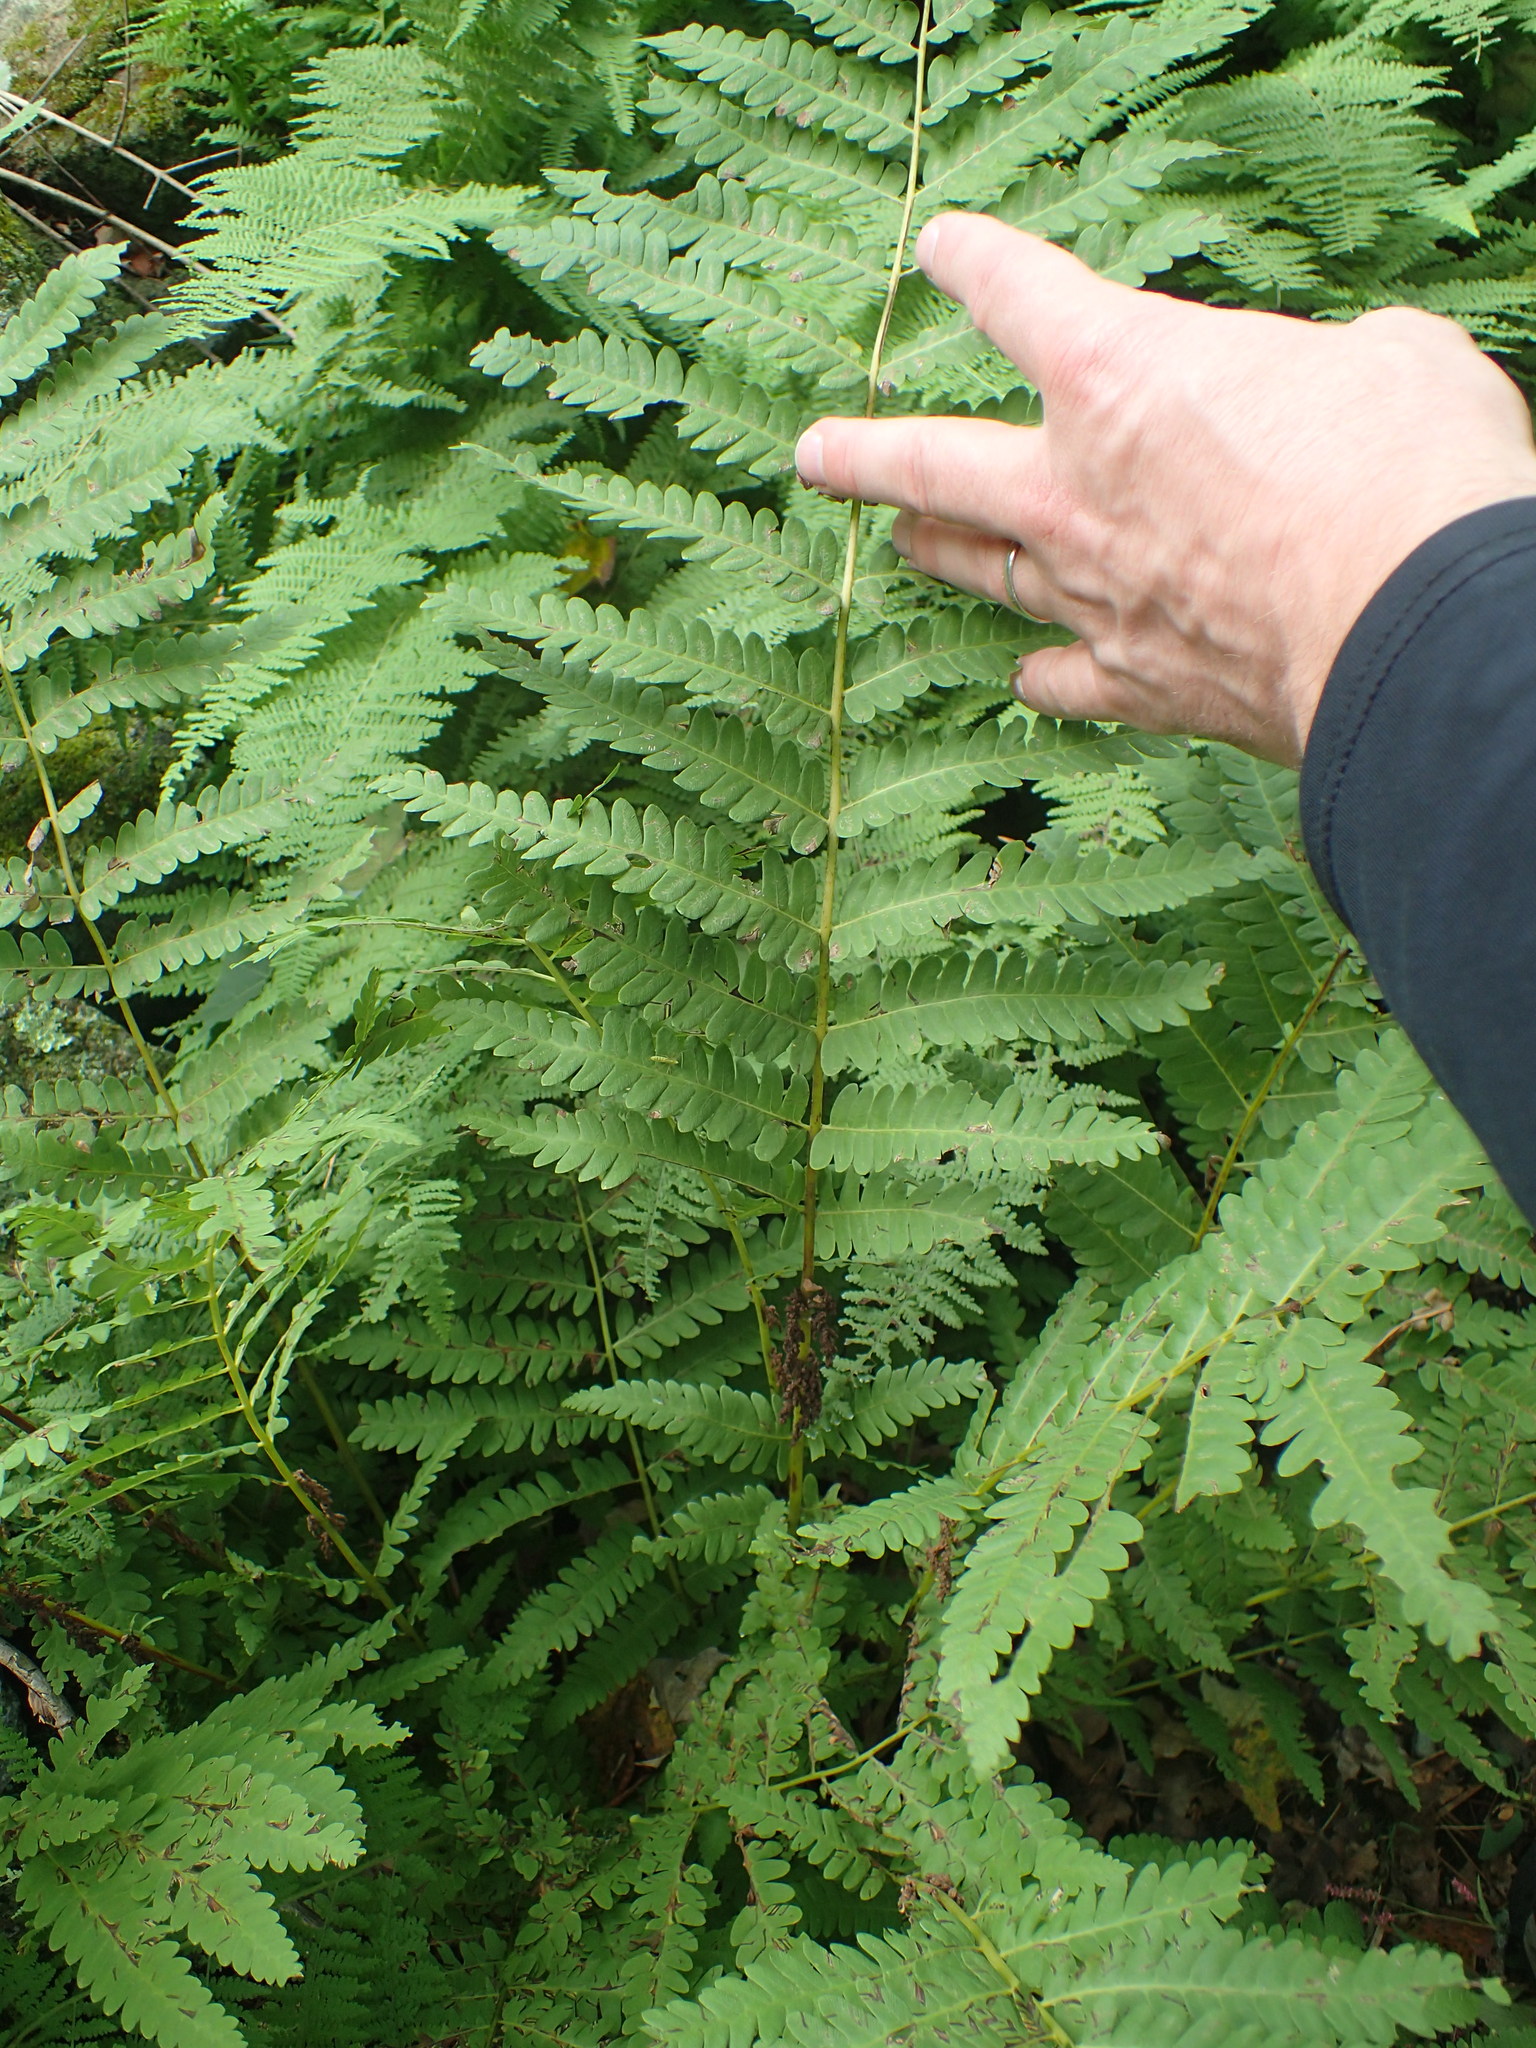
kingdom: Plantae
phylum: Tracheophyta
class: Polypodiopsida
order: Osmundales
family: Osmundaceae
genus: Claytosmunda
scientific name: Claytosmunda claytoniana
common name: Clayton's fern
